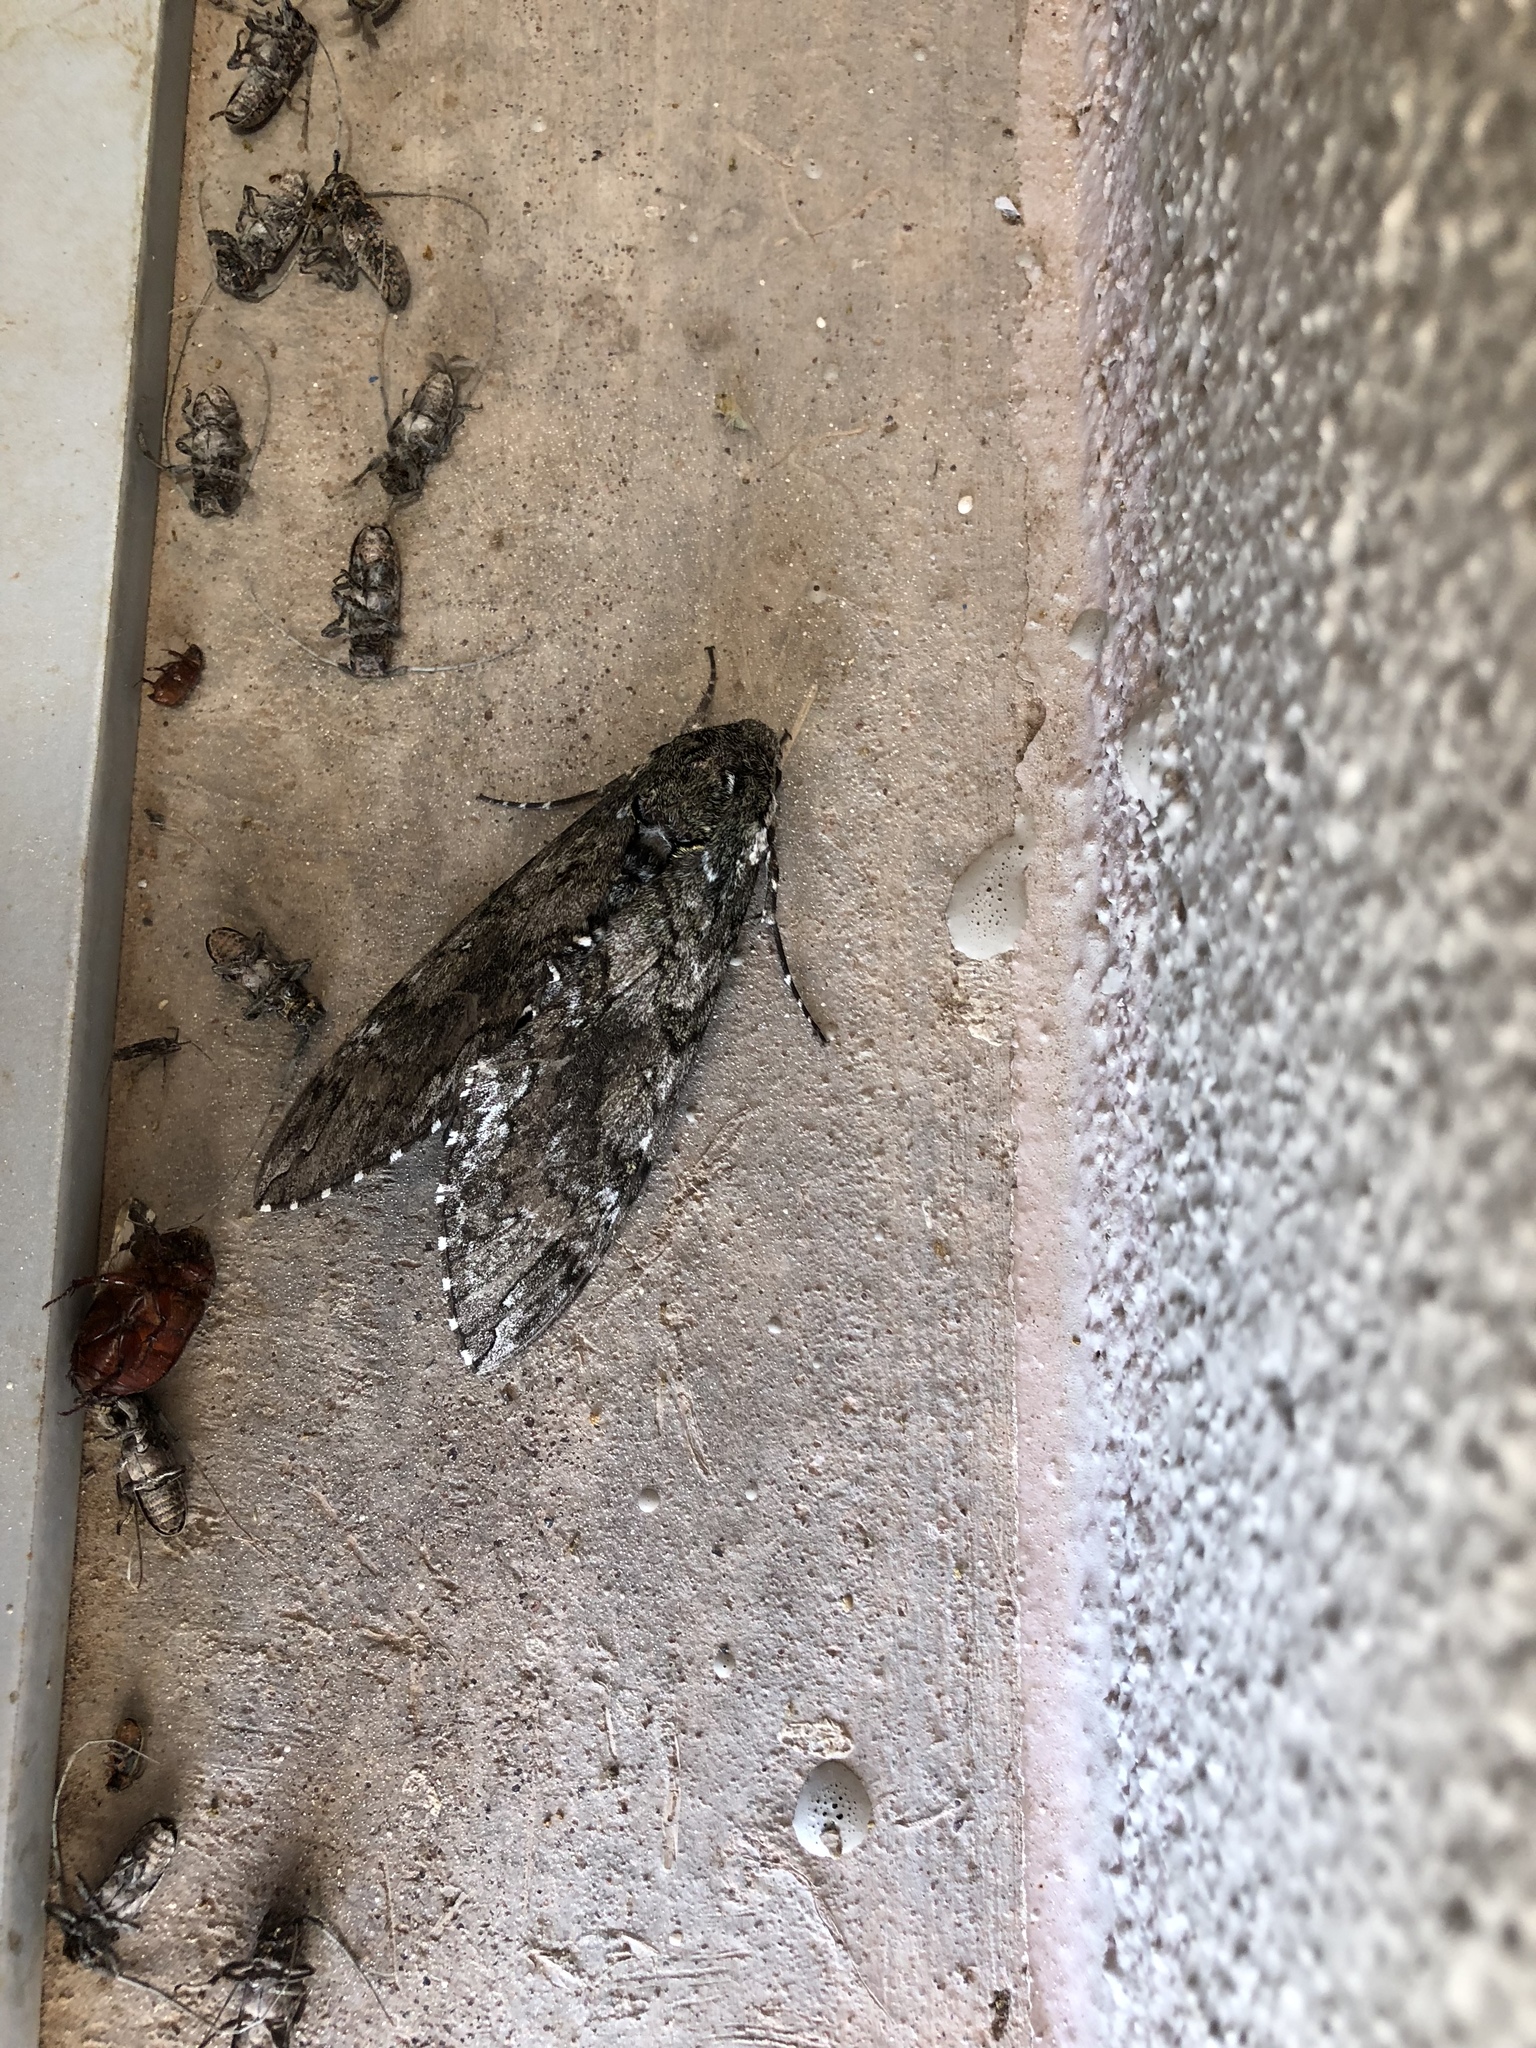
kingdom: Animalia
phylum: Arthropoda
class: Insecta
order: Lepidoptera
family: Sphingidae
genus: Manduca
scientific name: Manduca sexta
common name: Carolina sphinx
